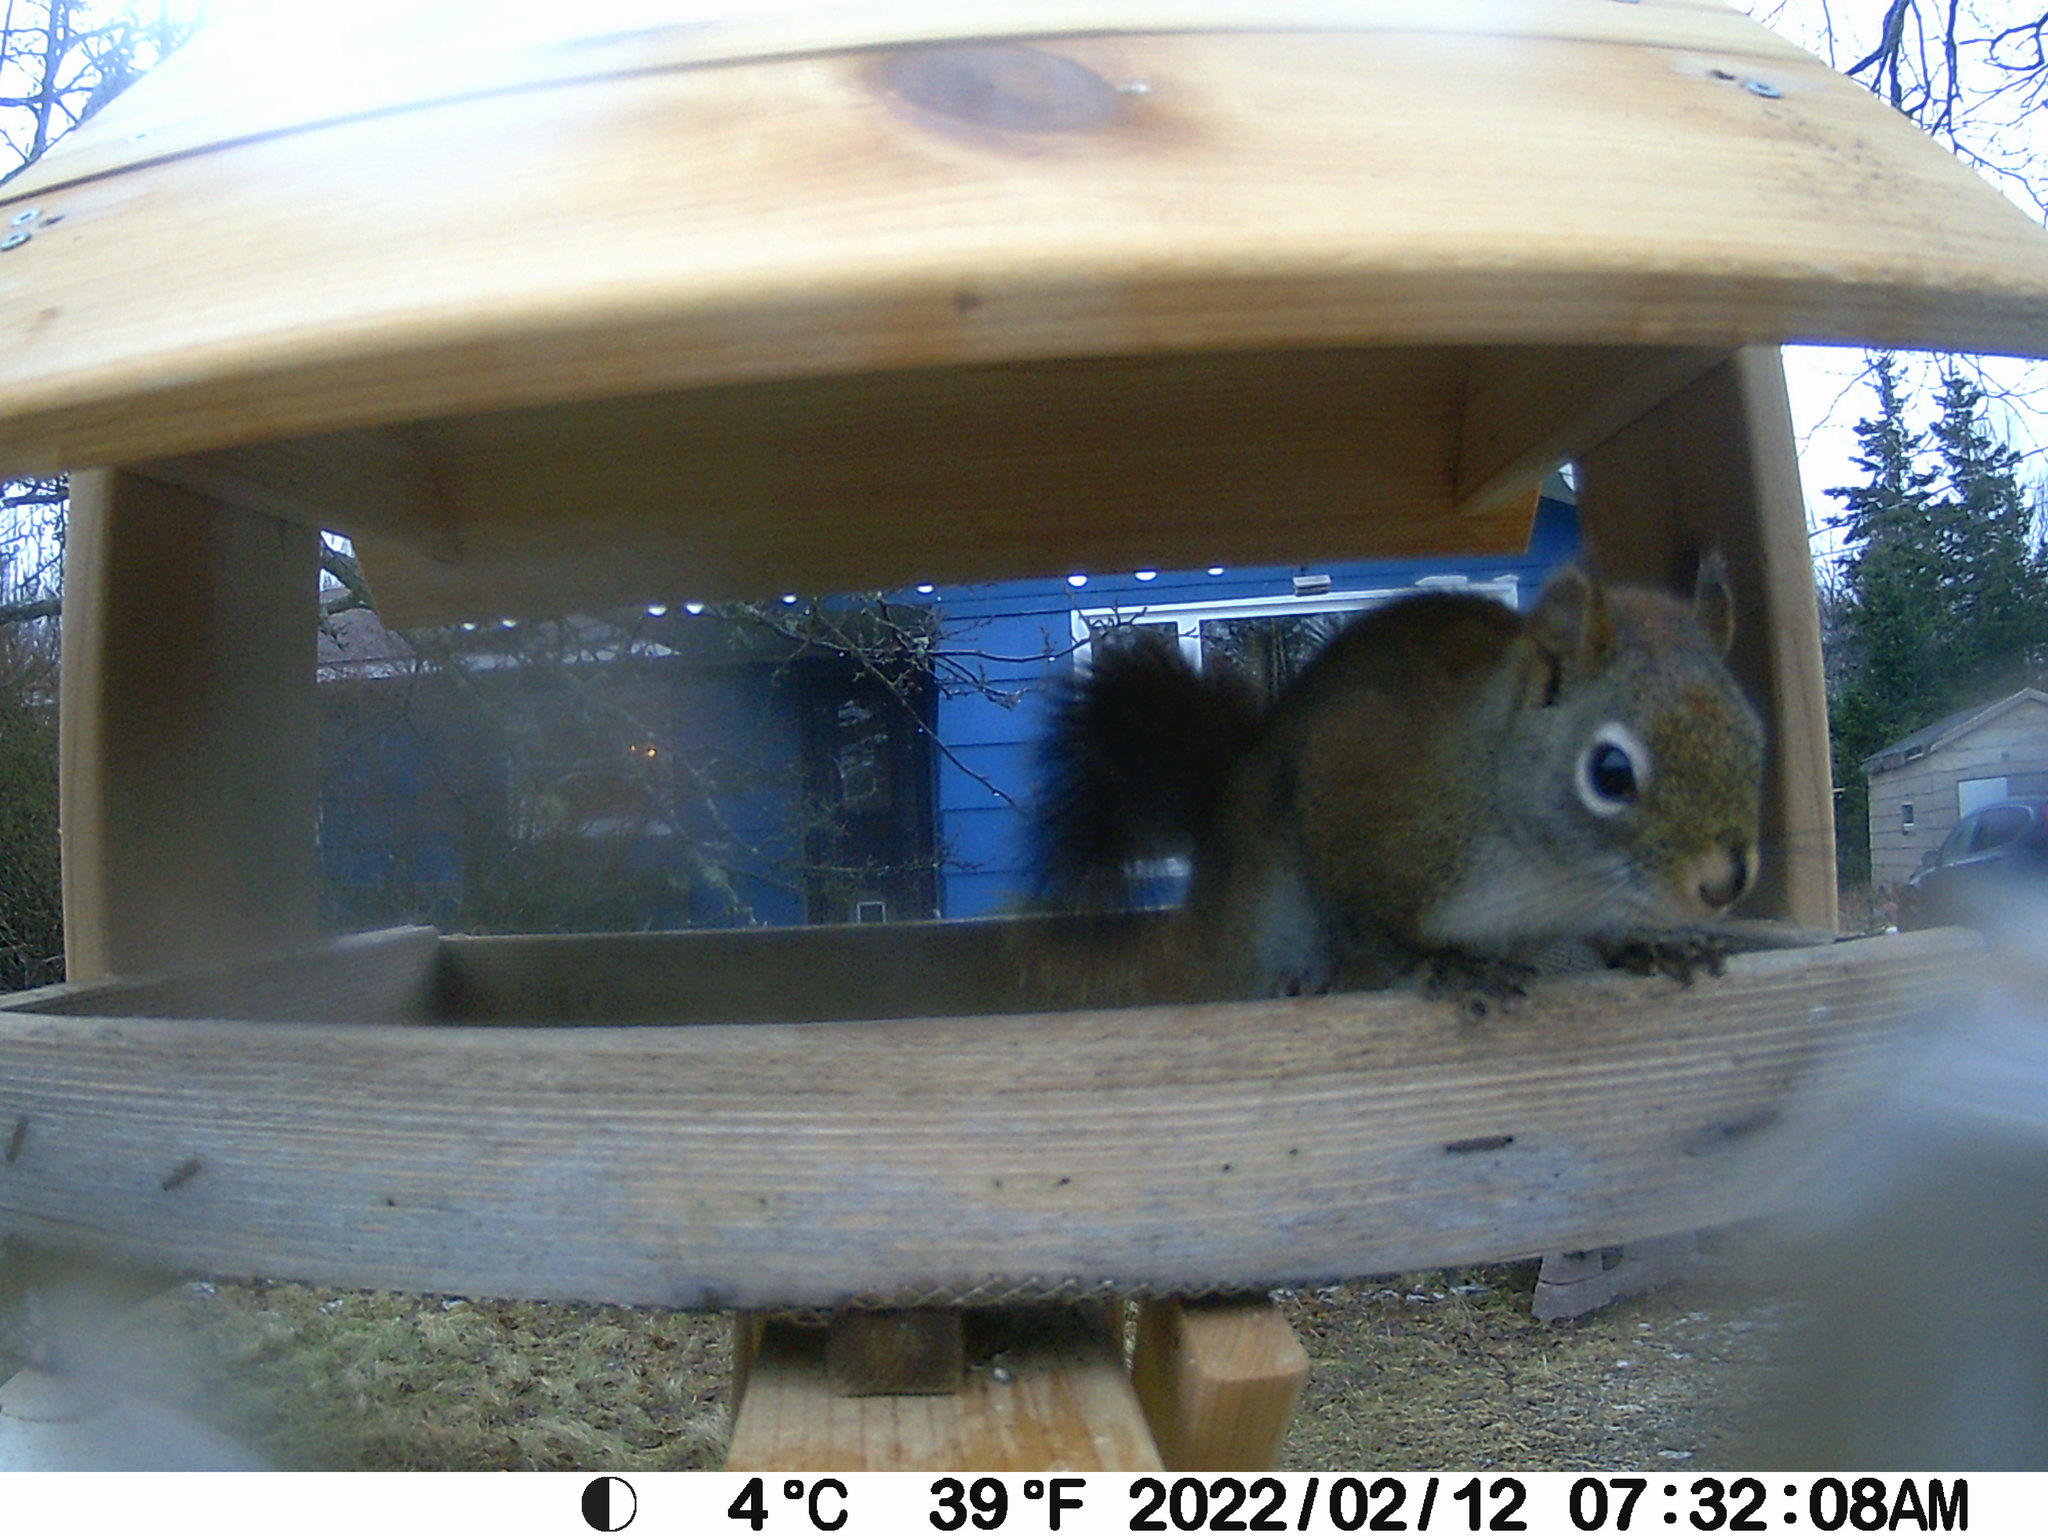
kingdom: Animalia
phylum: Chordata
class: Mammalia
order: Rodentia
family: Sciuridae
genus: Tamiasciurus
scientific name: Tamiasciurus hudsonicus
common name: Red squirrel
